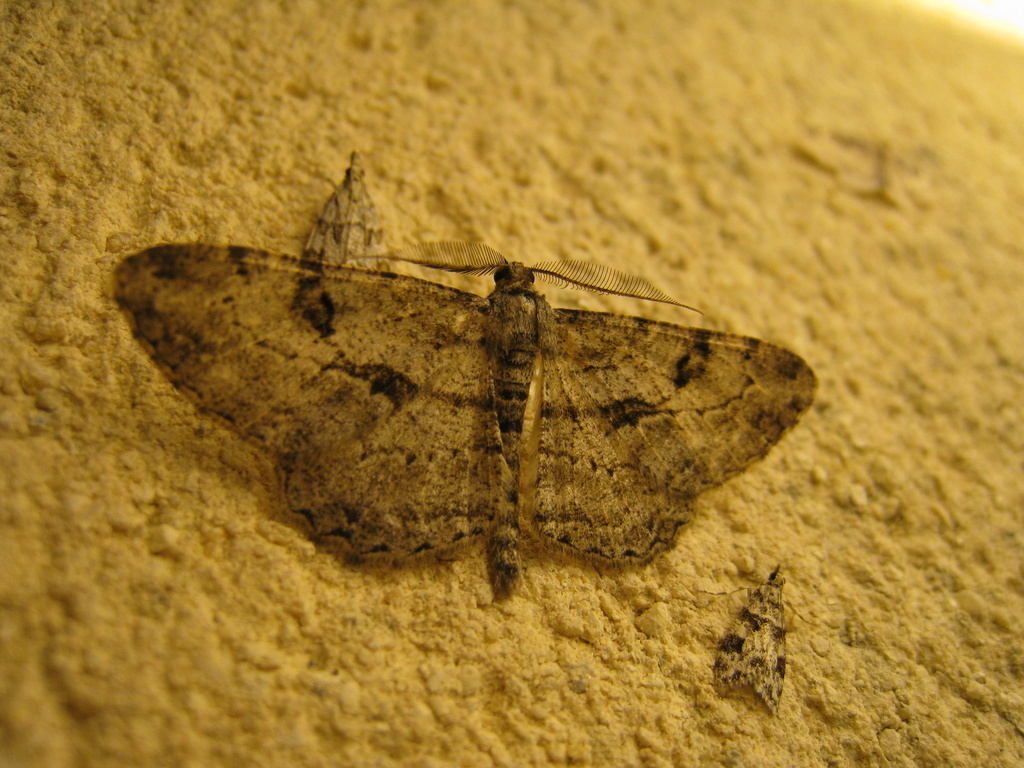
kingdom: Animalia
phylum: Arthropoda
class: Insecta
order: Lepidoptera
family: Geometridae
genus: Peribatodes
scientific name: Peribatodes rhomboidaria
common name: Willow beauty
